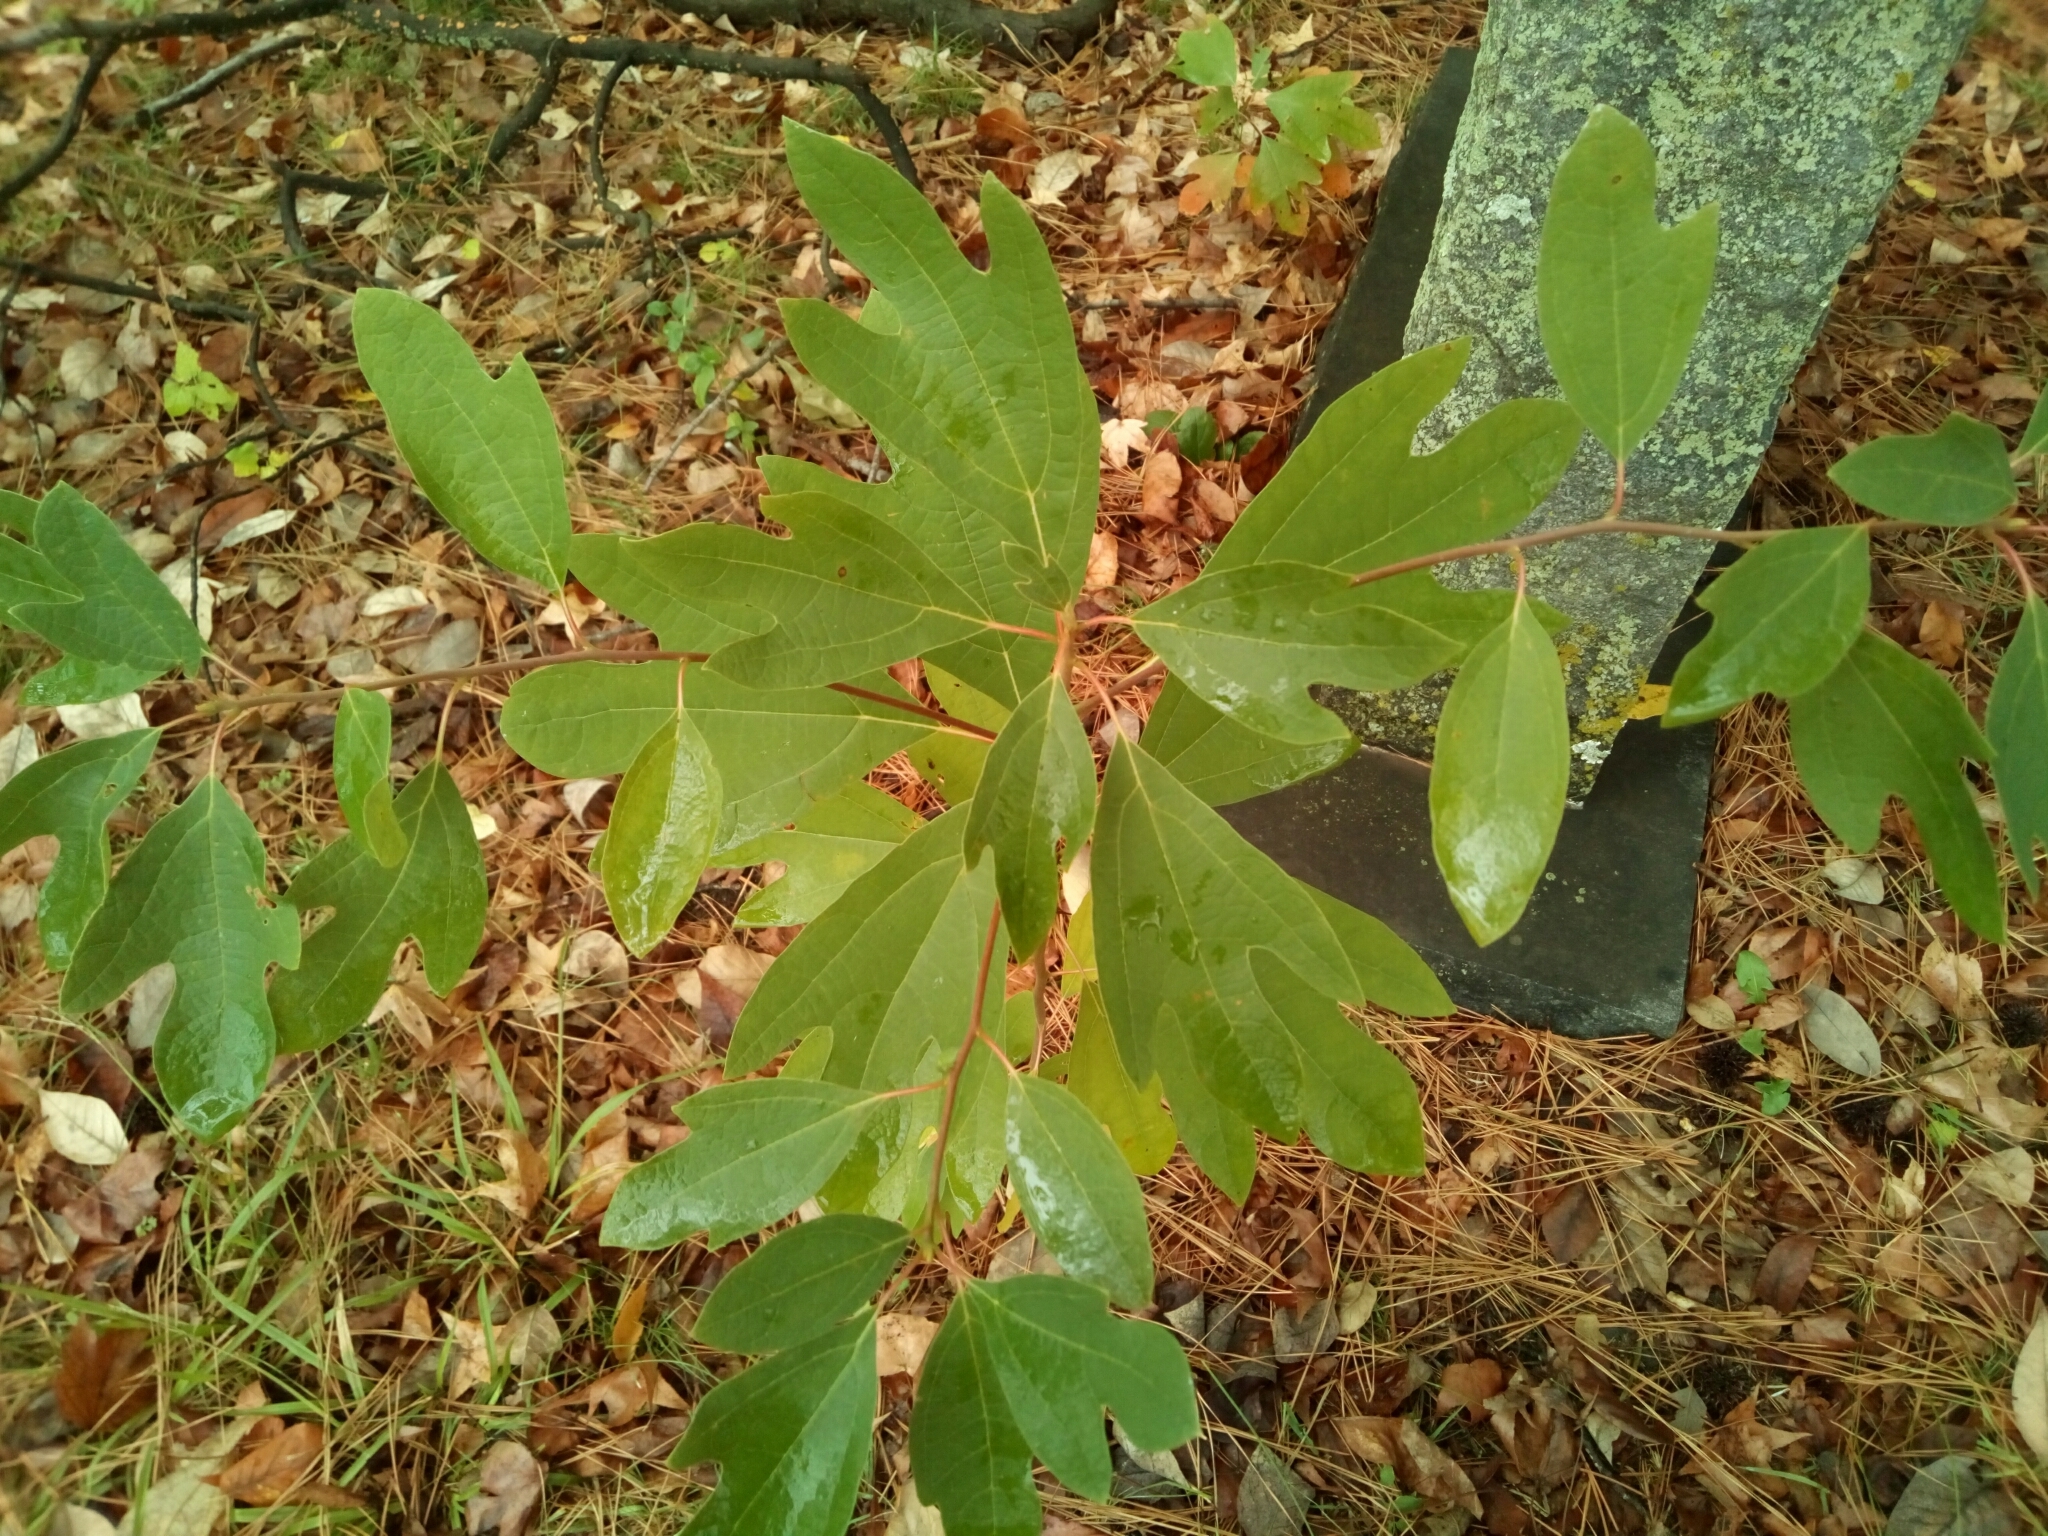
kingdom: Plantae
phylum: Tracheophyta
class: Magnoliopsida
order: Laurales
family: Lauraceae
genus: Sassafras
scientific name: Sassafras albidum
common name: Sassafras
